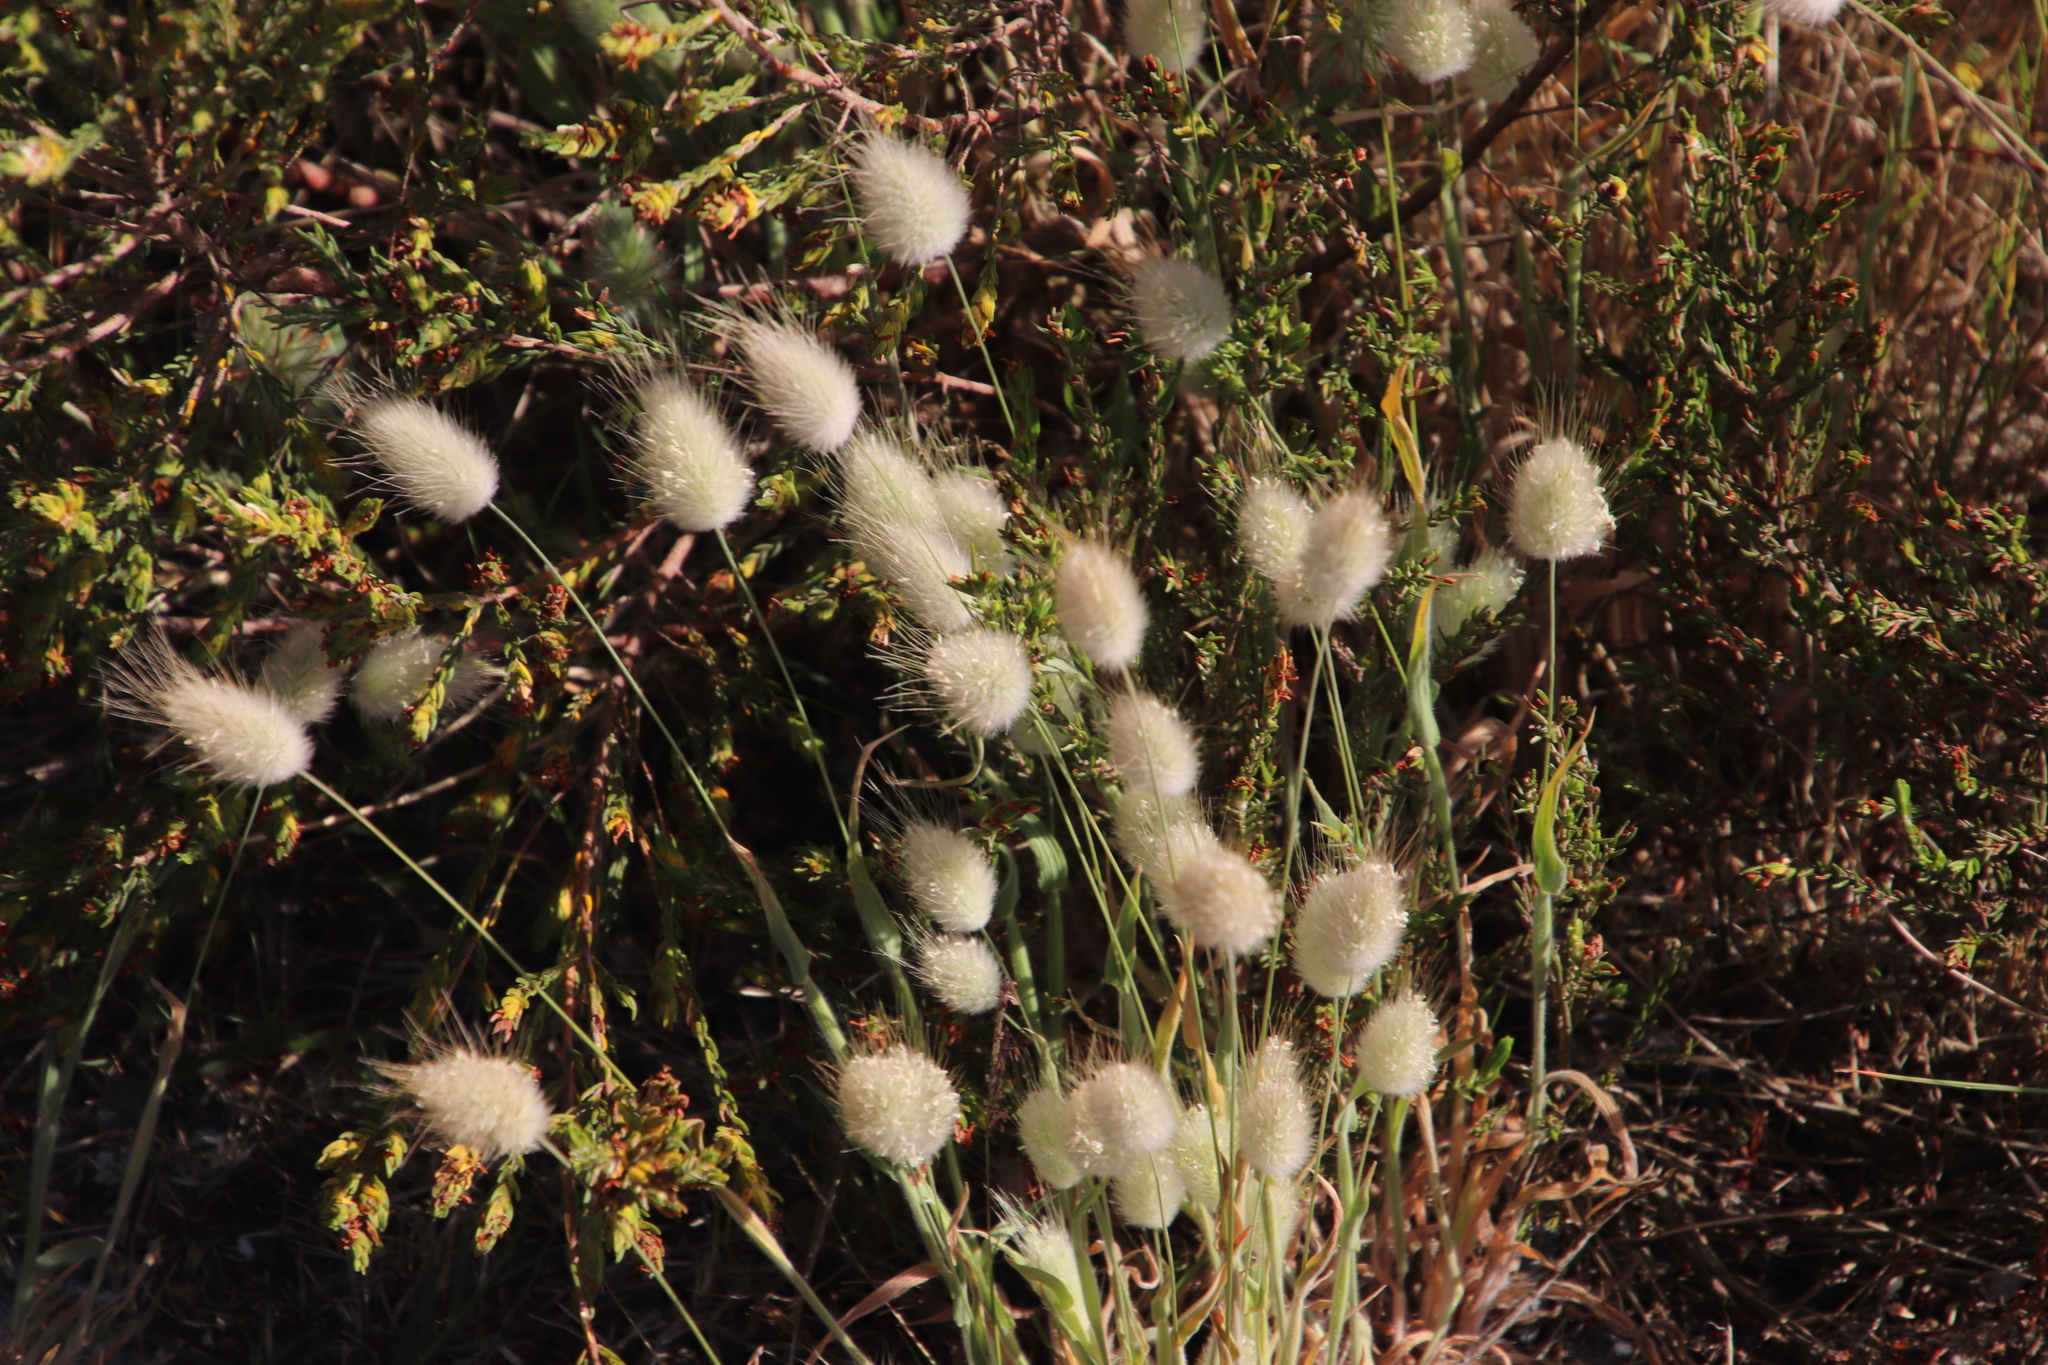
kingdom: Plantae
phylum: Tracheophyta
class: Liliopsida
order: Poales
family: Poaceae
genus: Lagurus
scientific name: Lagurus ovatus
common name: Hare's-tail
